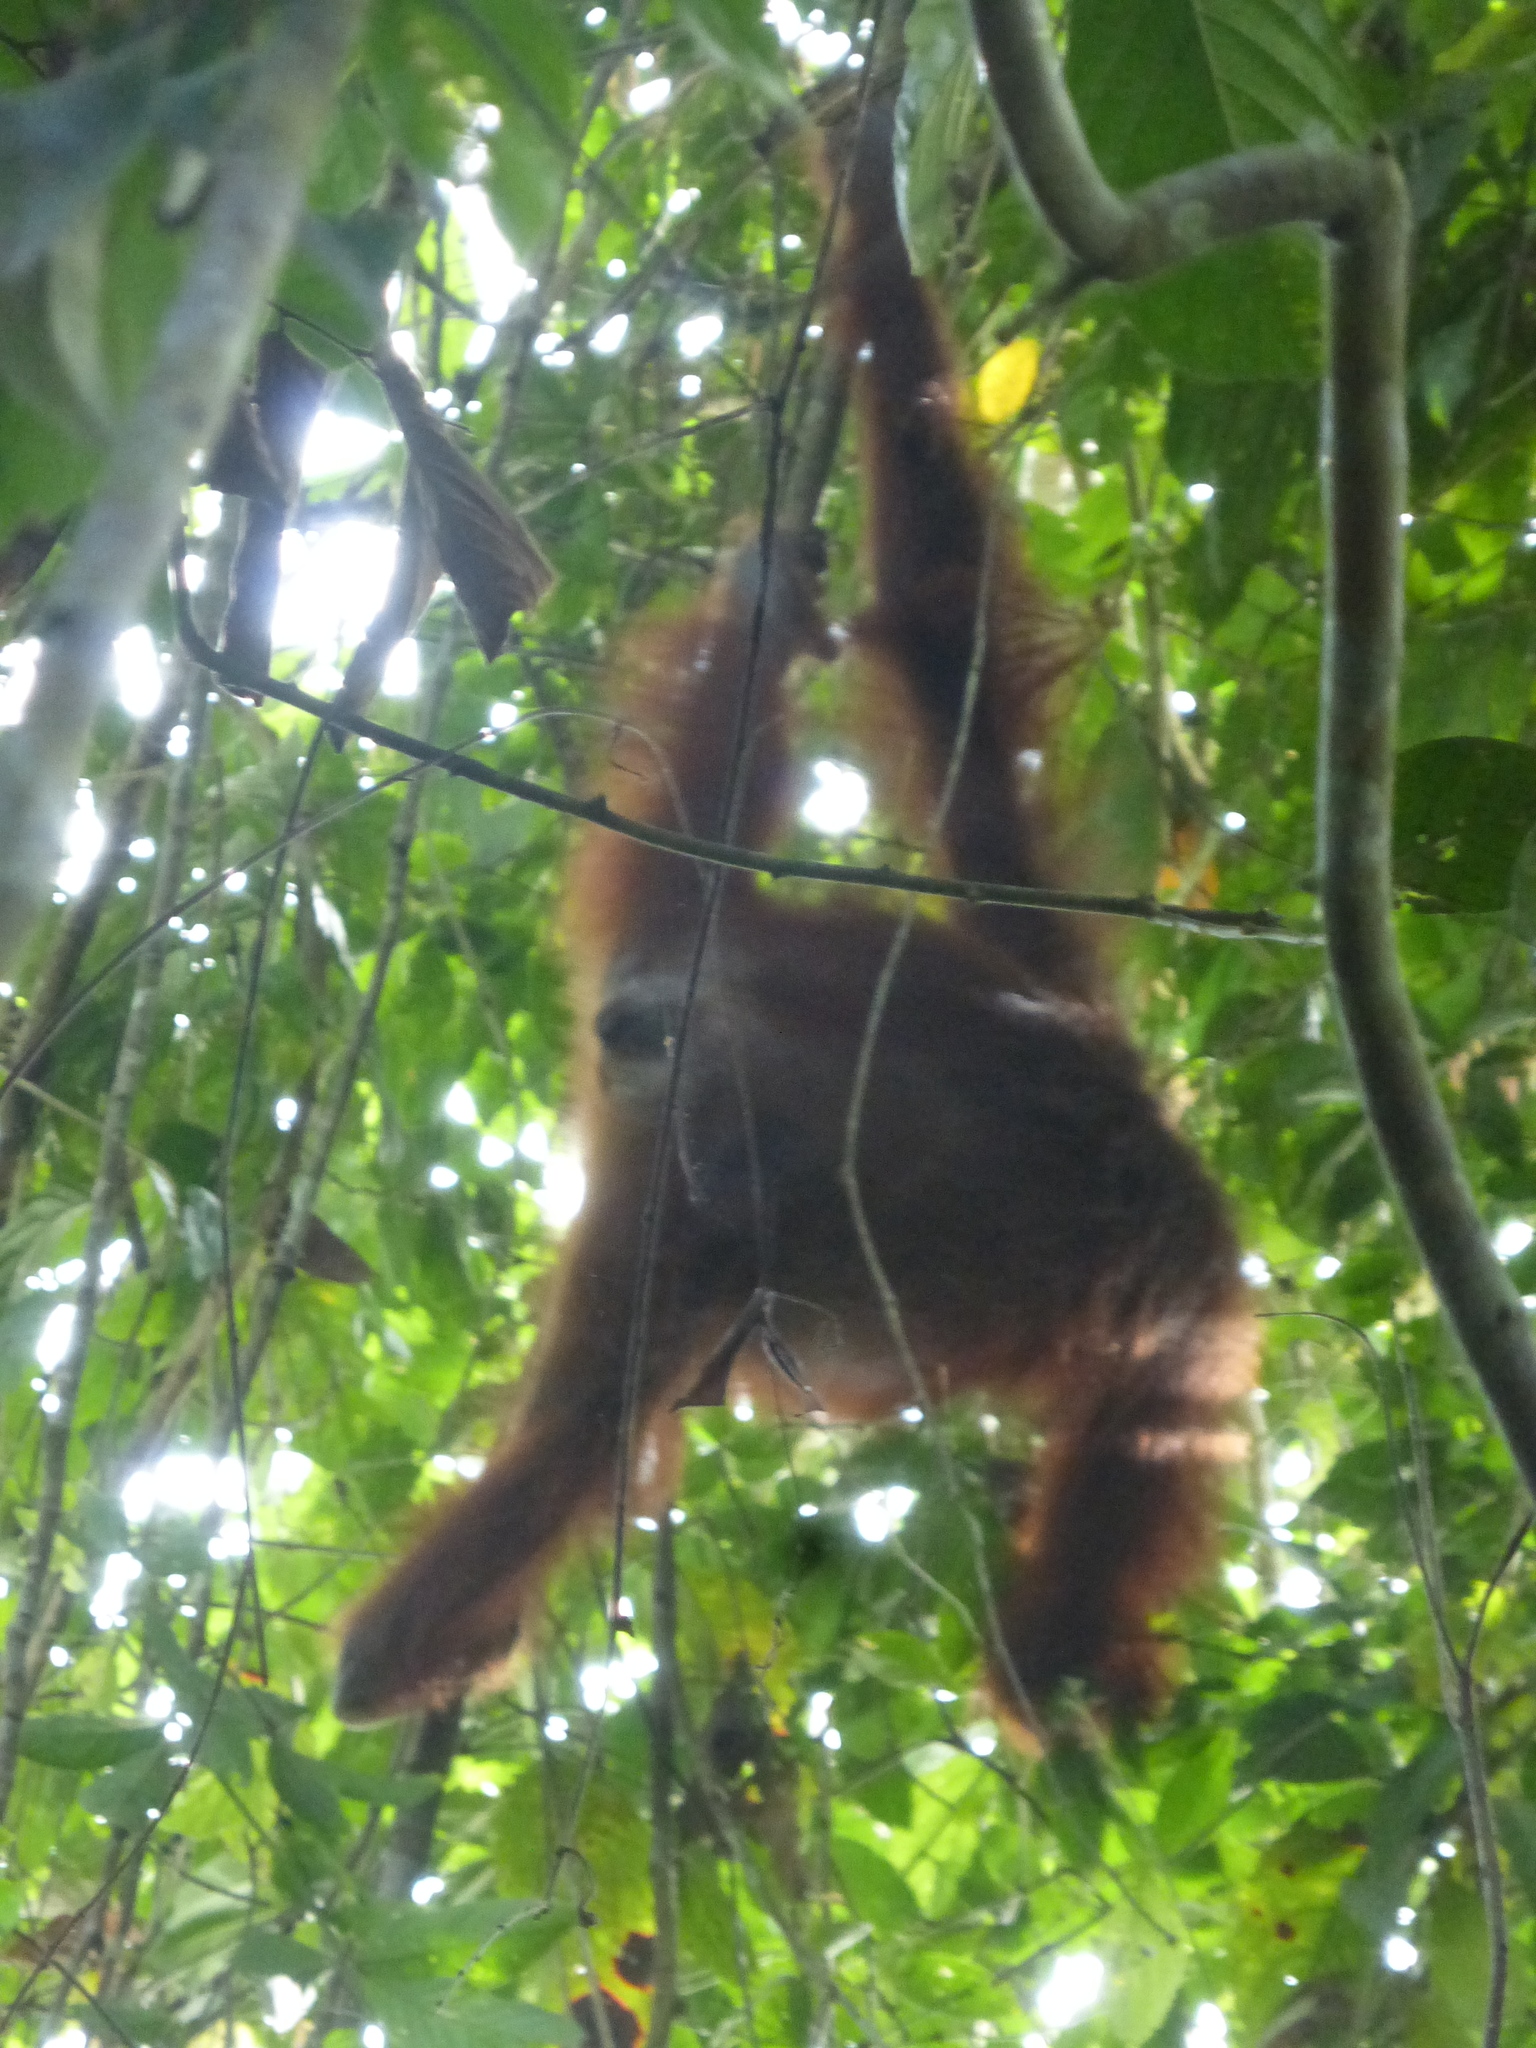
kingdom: Animalia
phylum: Chordata
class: Mammalia
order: Primates
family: Hominidae
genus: Pongo
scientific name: Pongo pygmaeus
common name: Bornean orangutan
